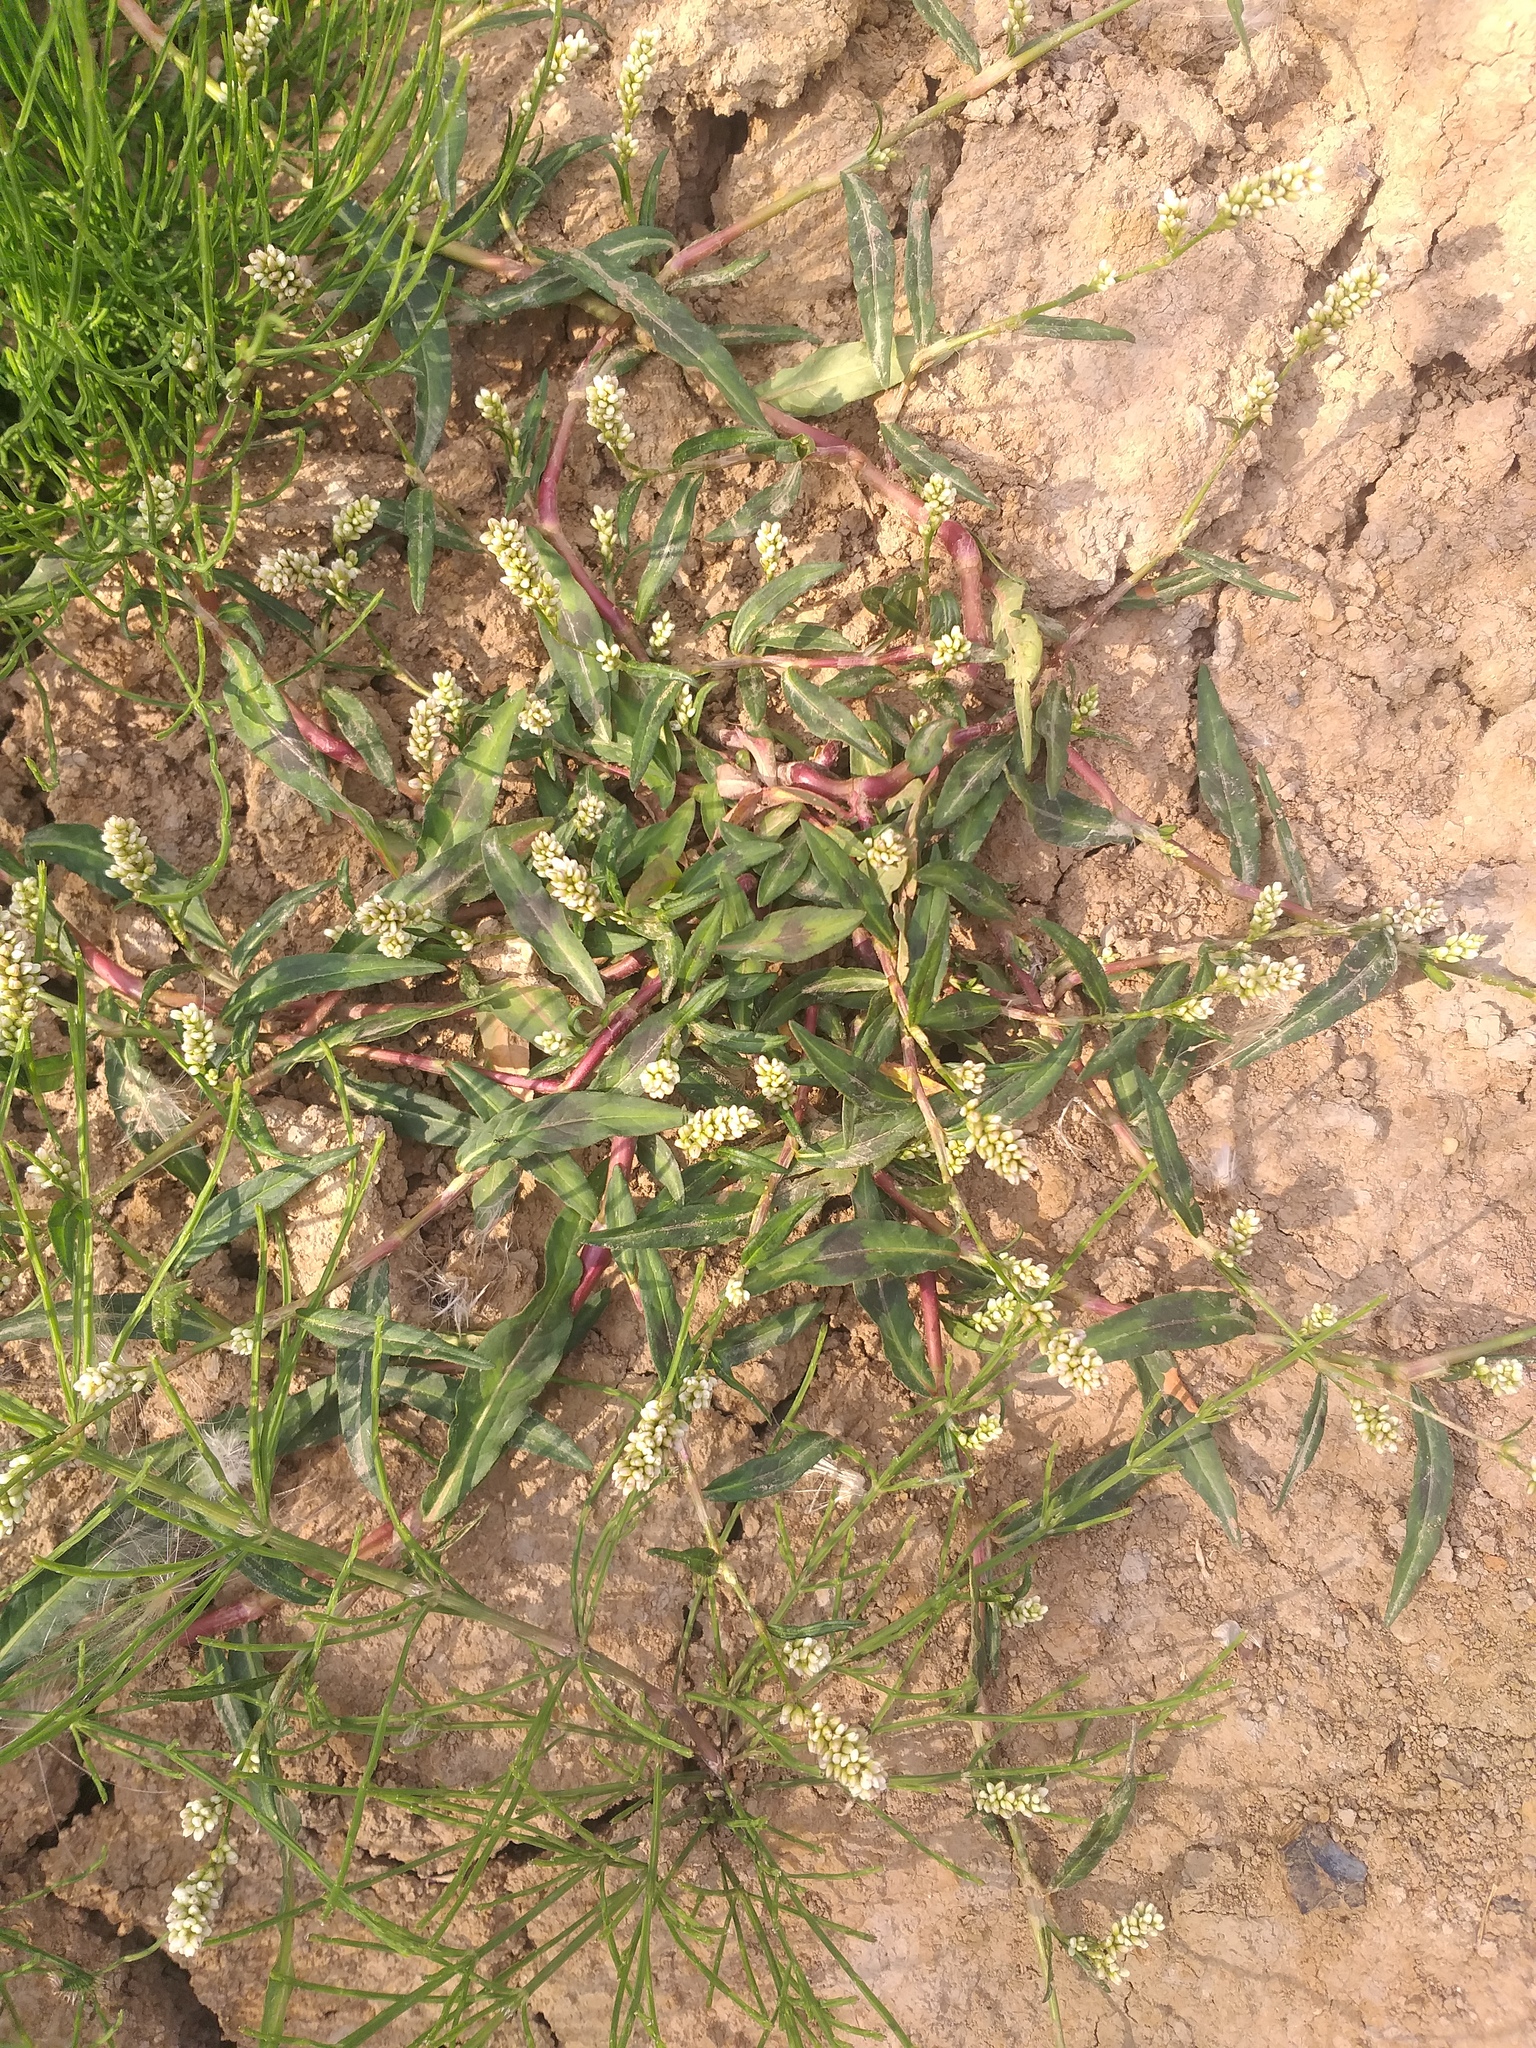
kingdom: Plantae
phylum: Tracheophyta
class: Magnoliopsida
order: Caryophyllales
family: Polygonaceae
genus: Persicaria
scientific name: Persicaria maculosa
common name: Redshank
